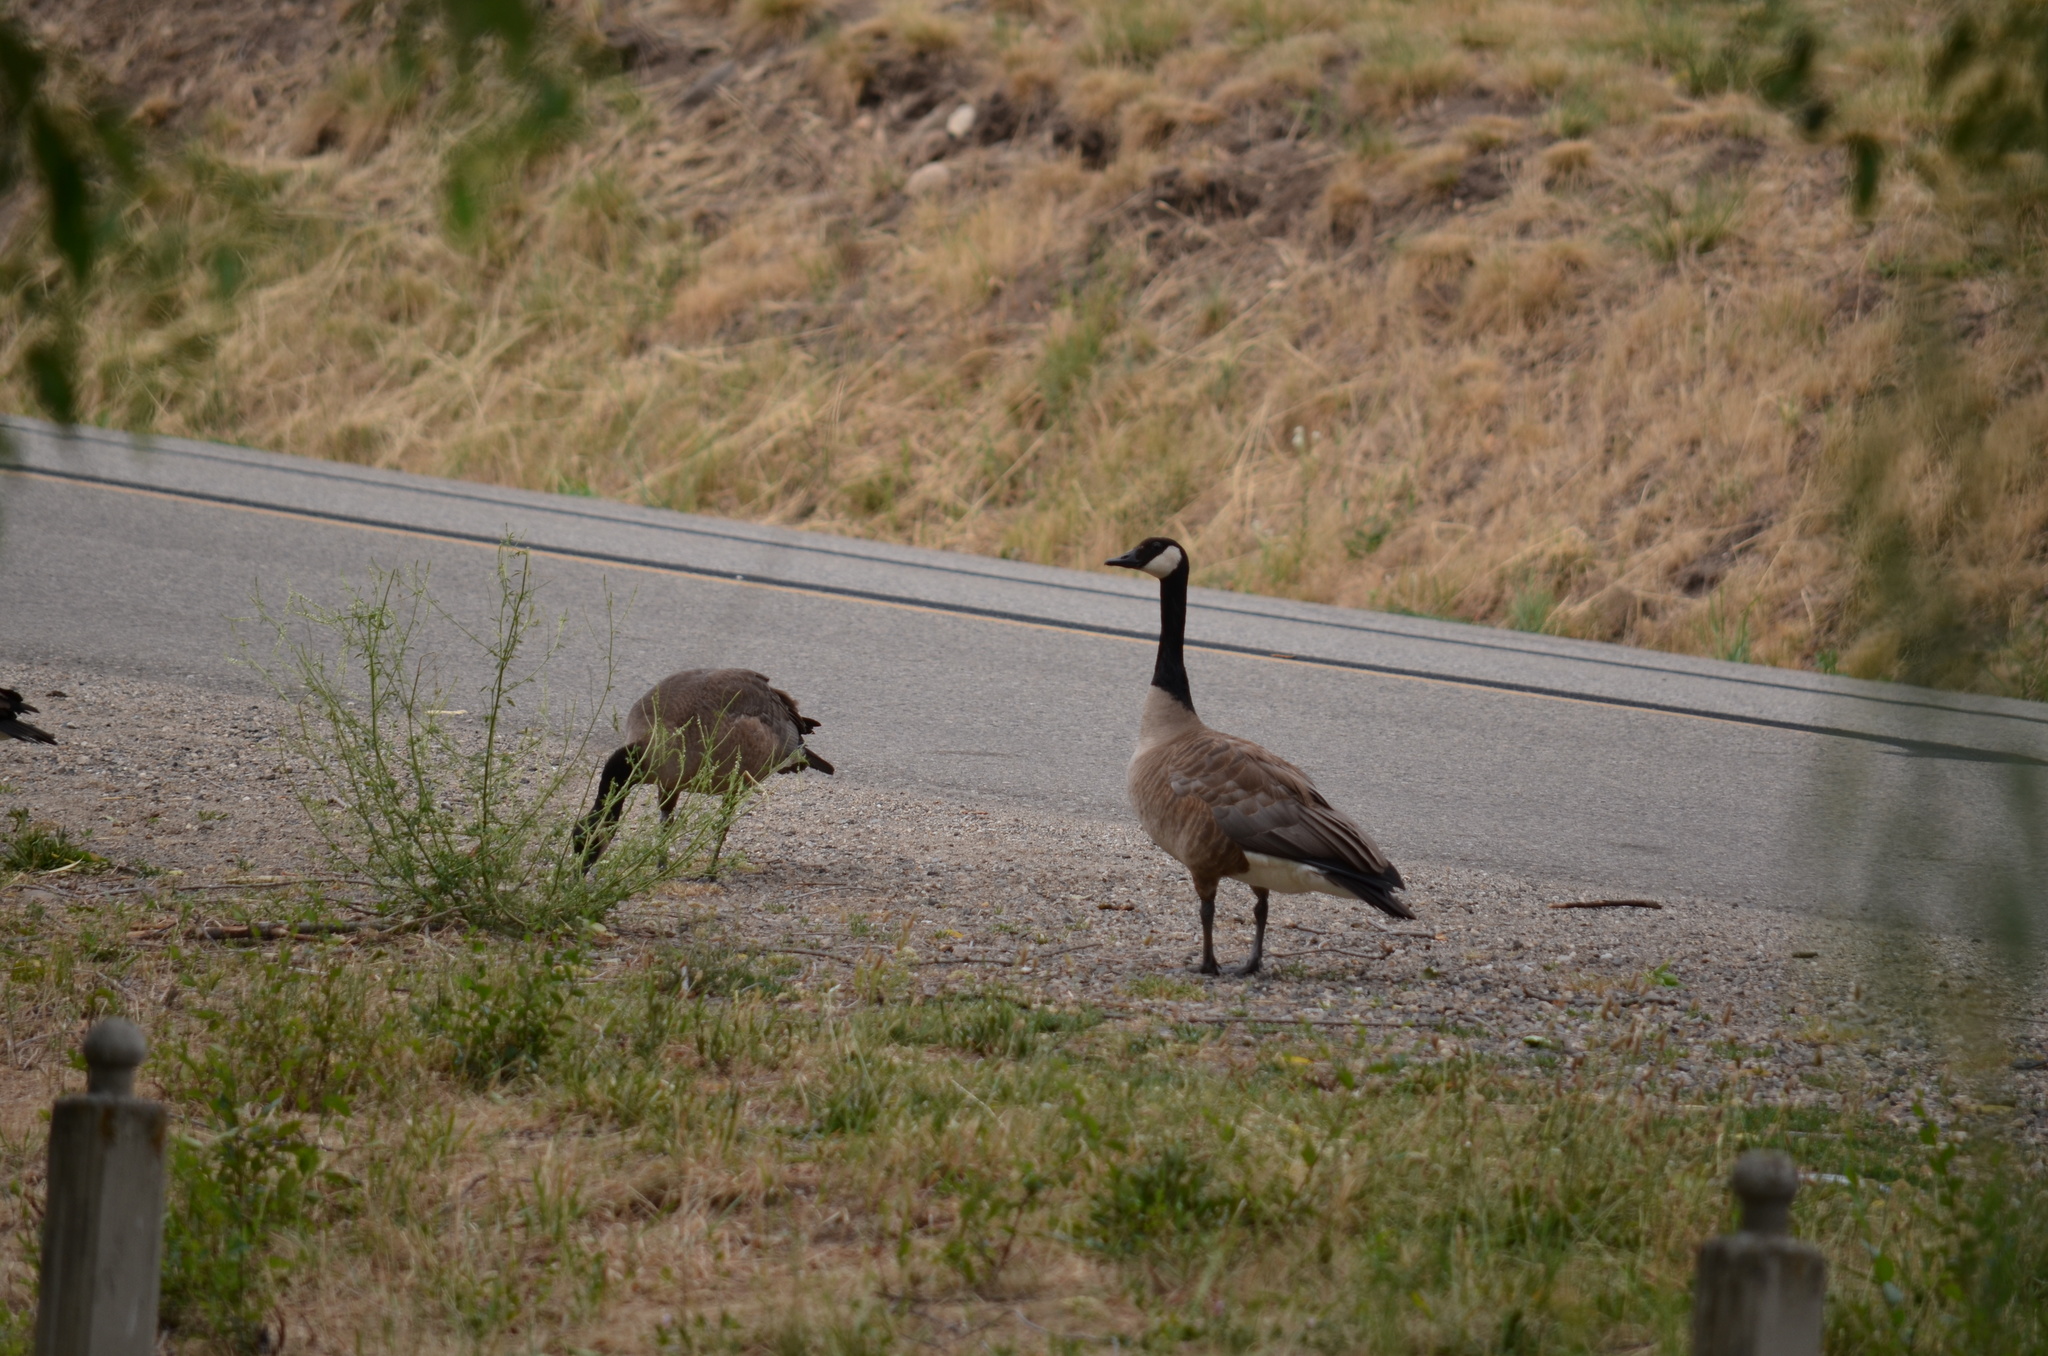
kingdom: Animalia
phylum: Chordata
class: Aves
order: Anseriformes
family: Anatidae
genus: Branta
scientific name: Branta canadensis
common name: Canada goose
